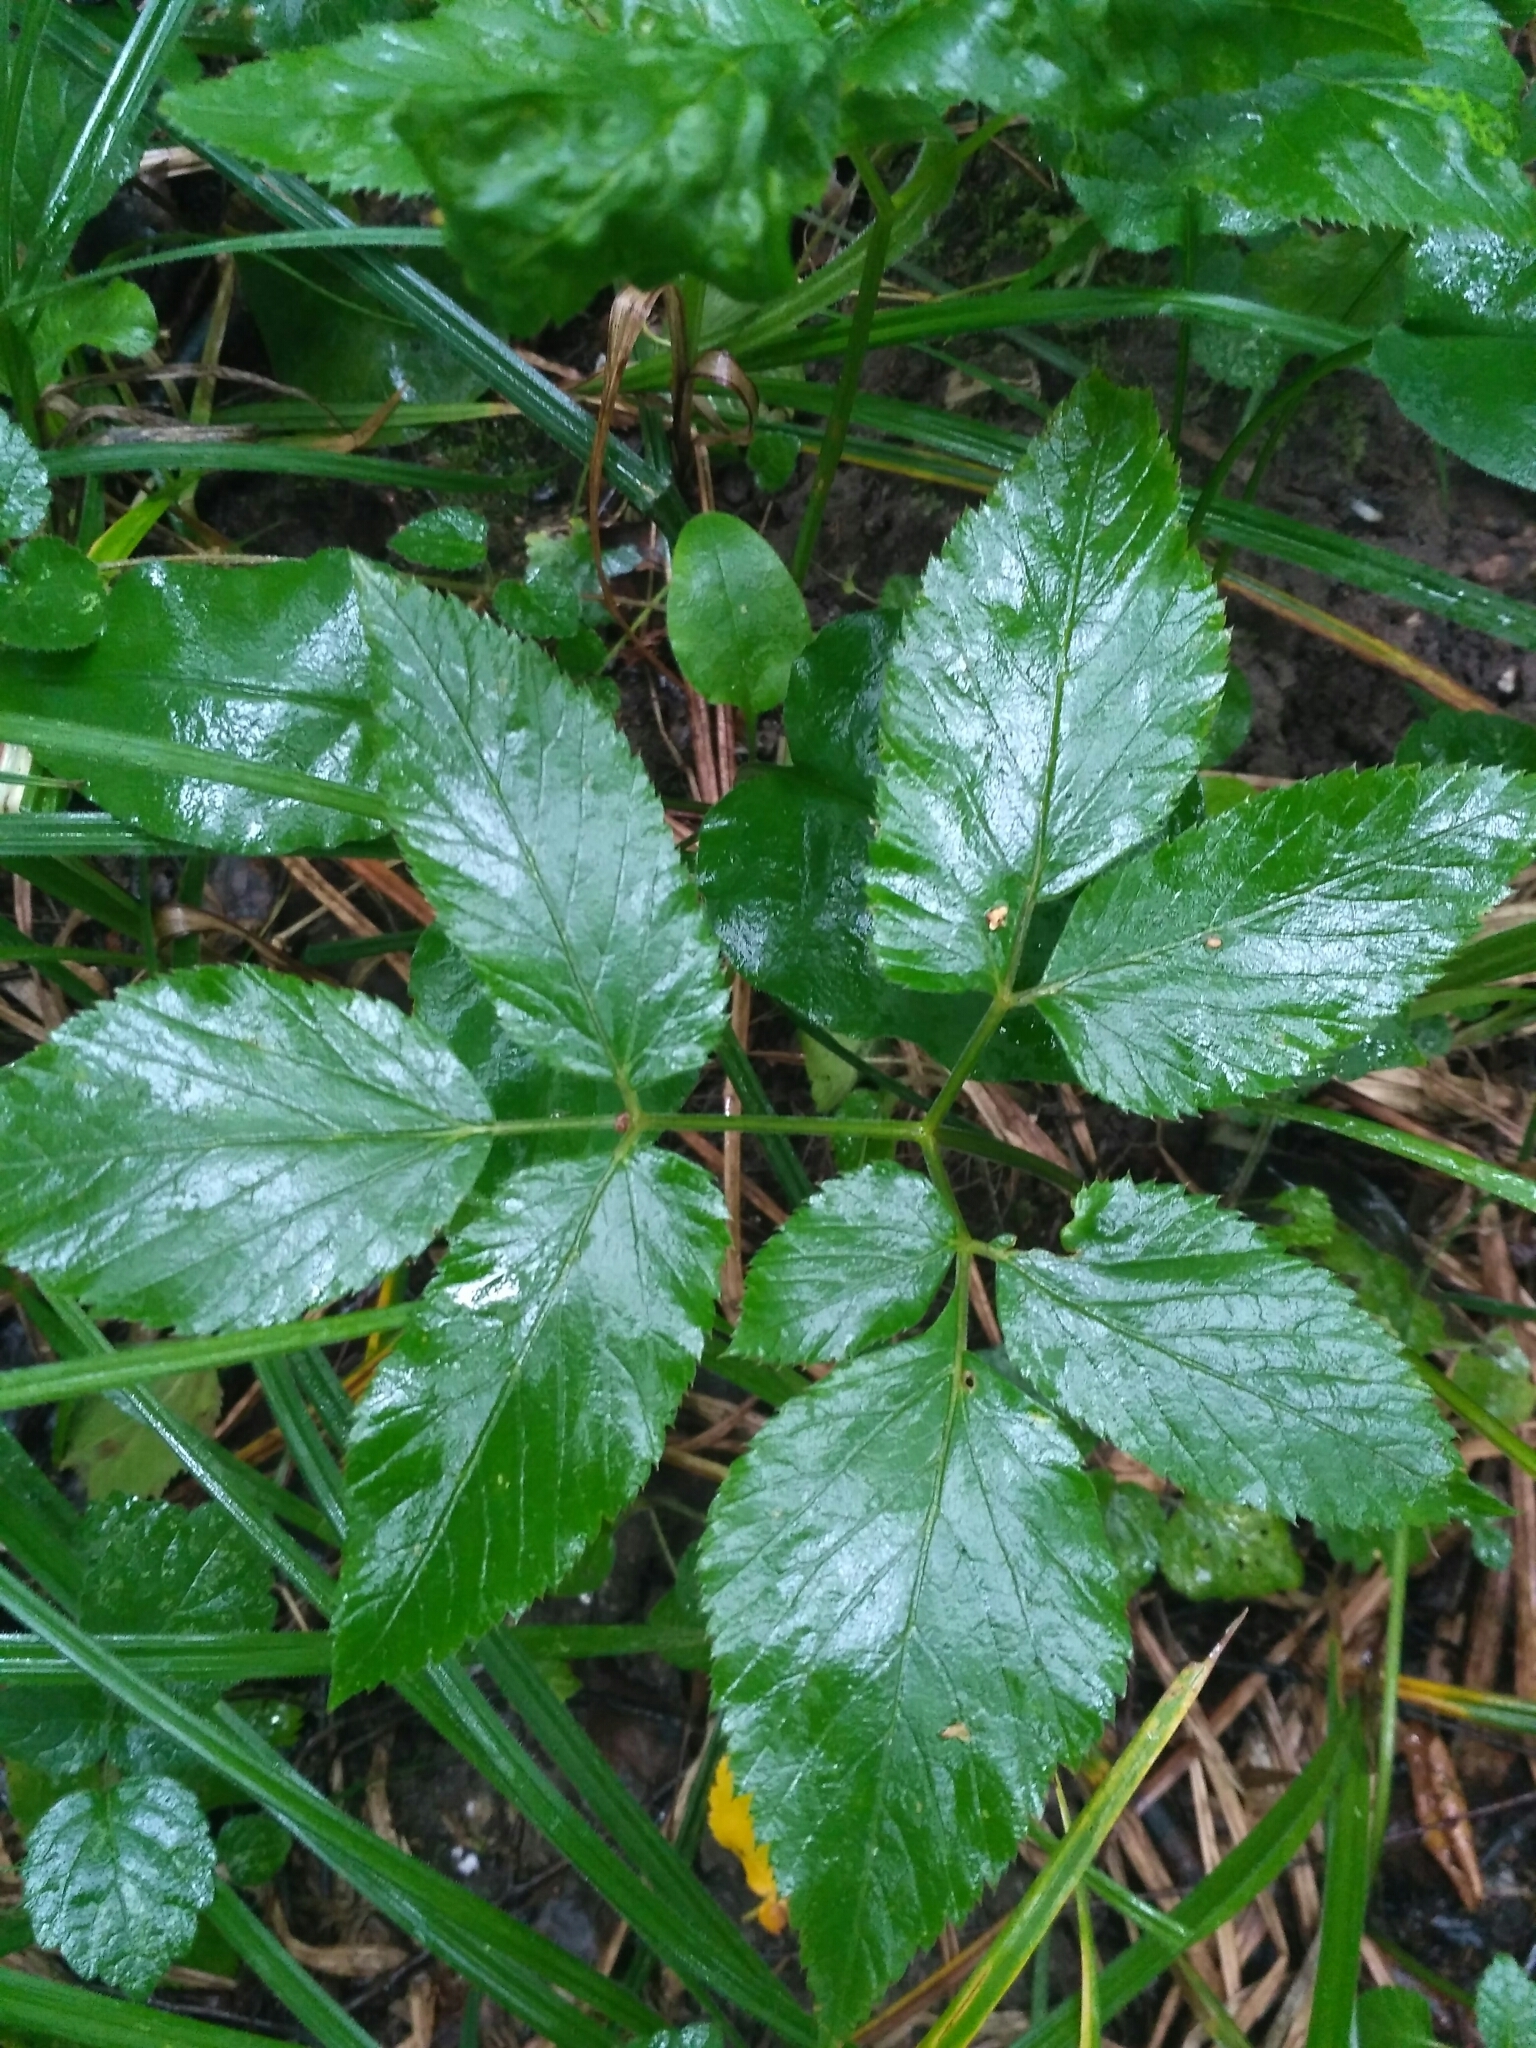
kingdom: Plantae
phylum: Tracheophyta
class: Magnoliopsida
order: Apiales
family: Apiaceae
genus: Aegopodium
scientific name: Aegopodium podagraria
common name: Ground-elder
